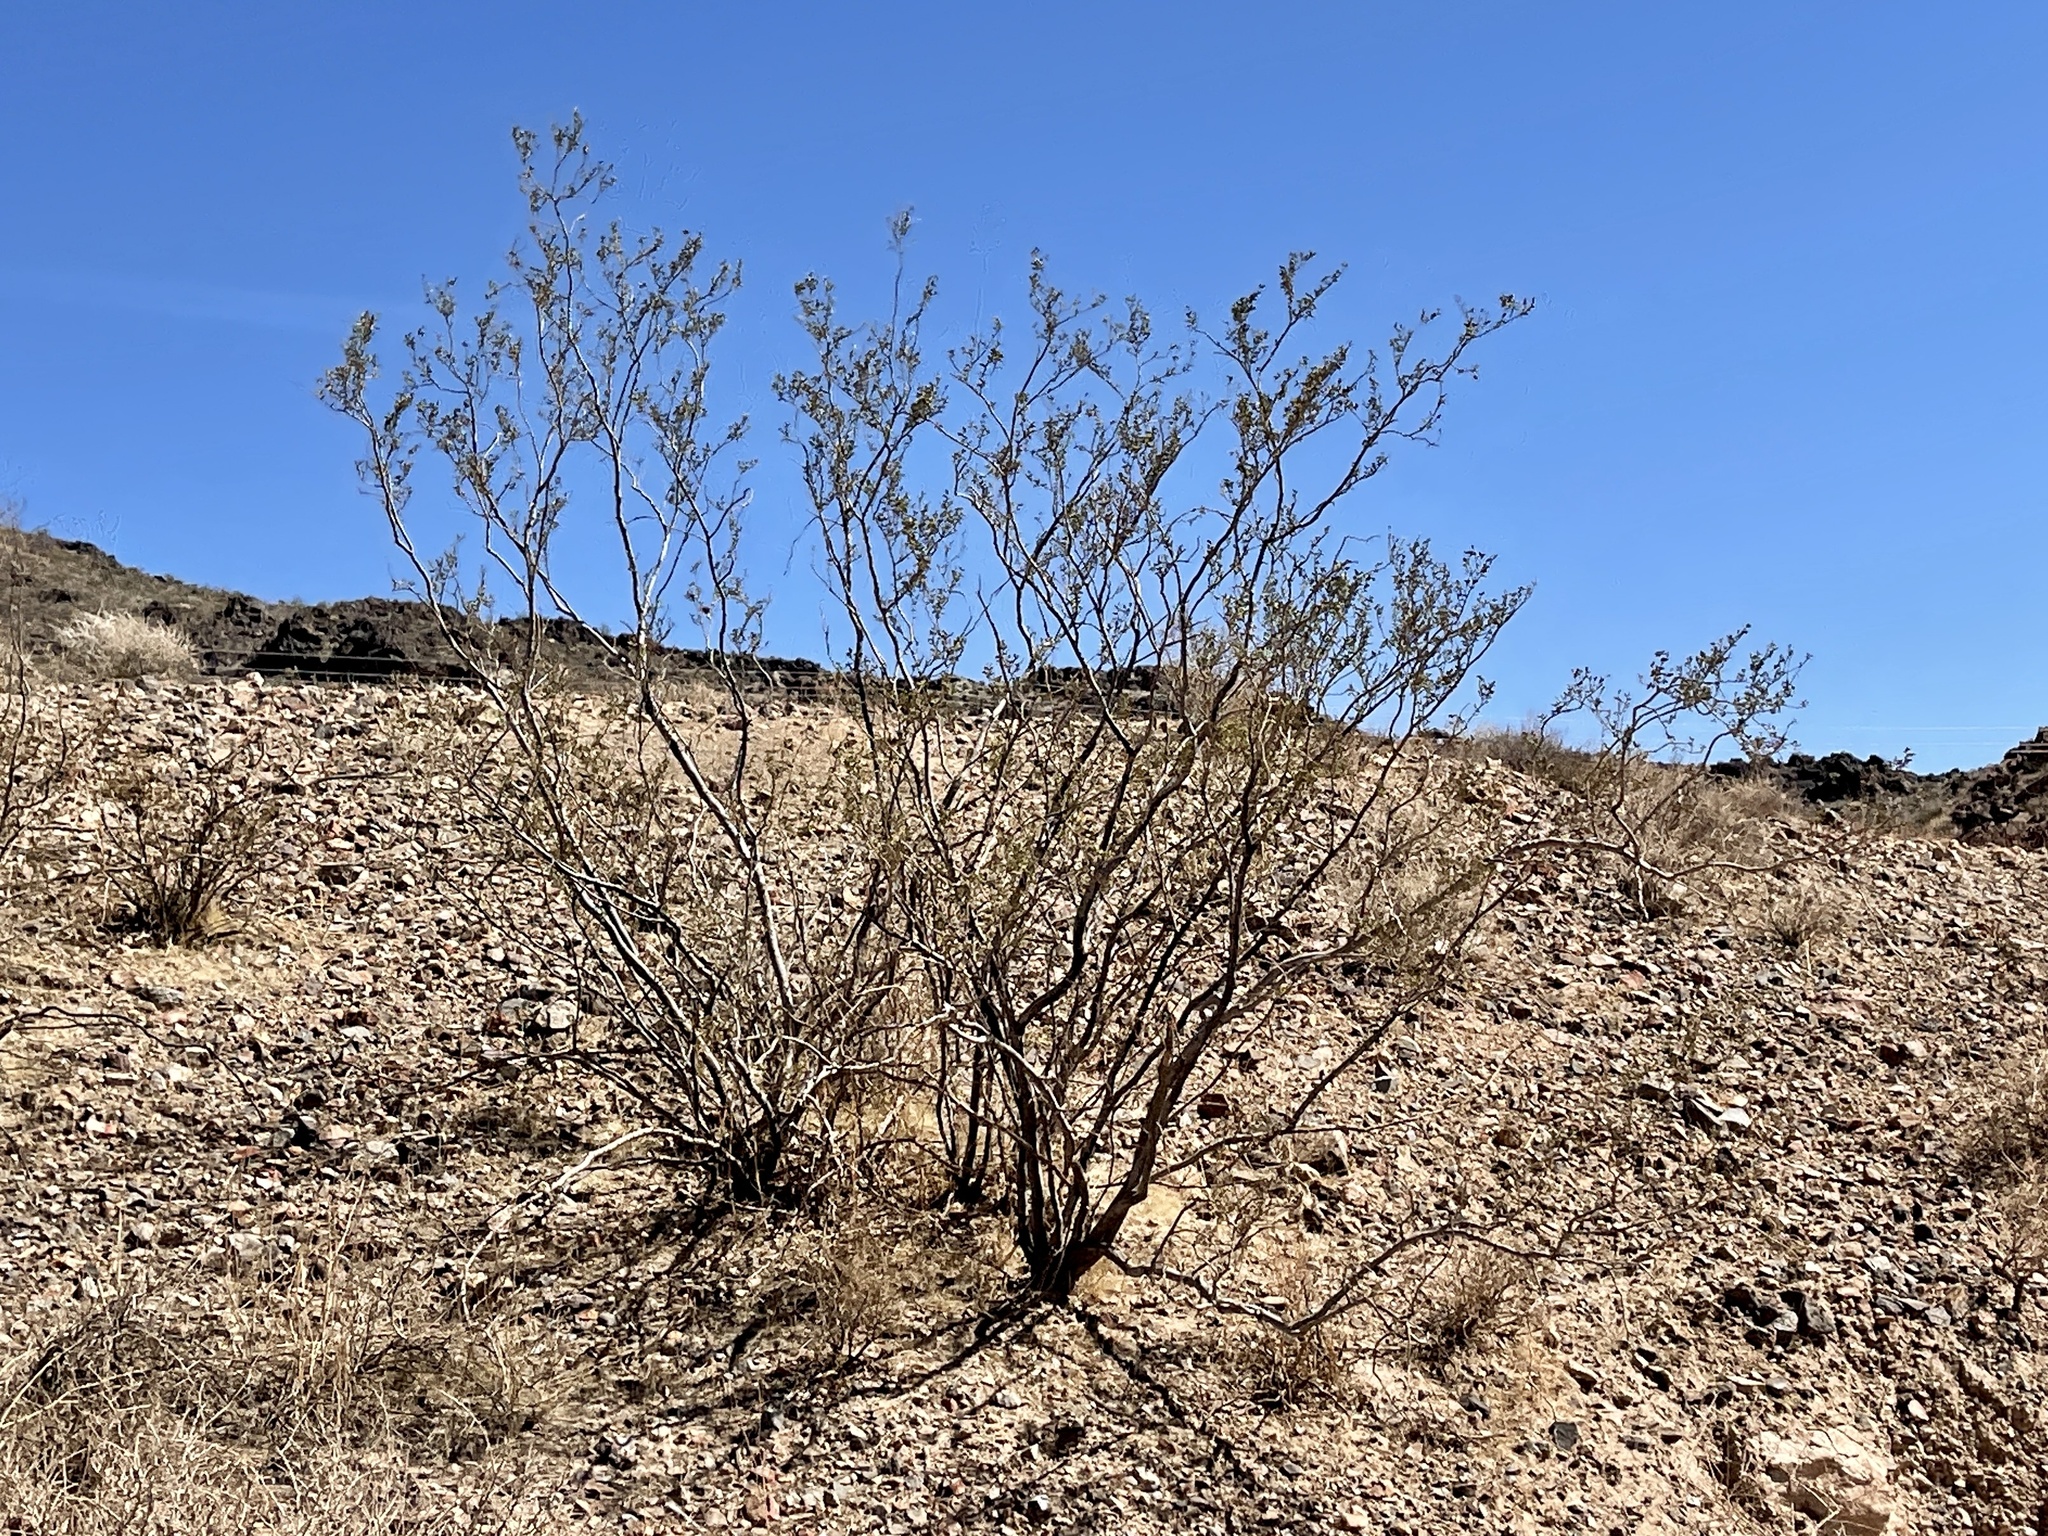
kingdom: Plantae
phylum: Tracheophyta
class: Magnoliopsida
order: Zygophyllales
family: Zygophyllaceae
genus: Larrea
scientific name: Larrea tridentata
